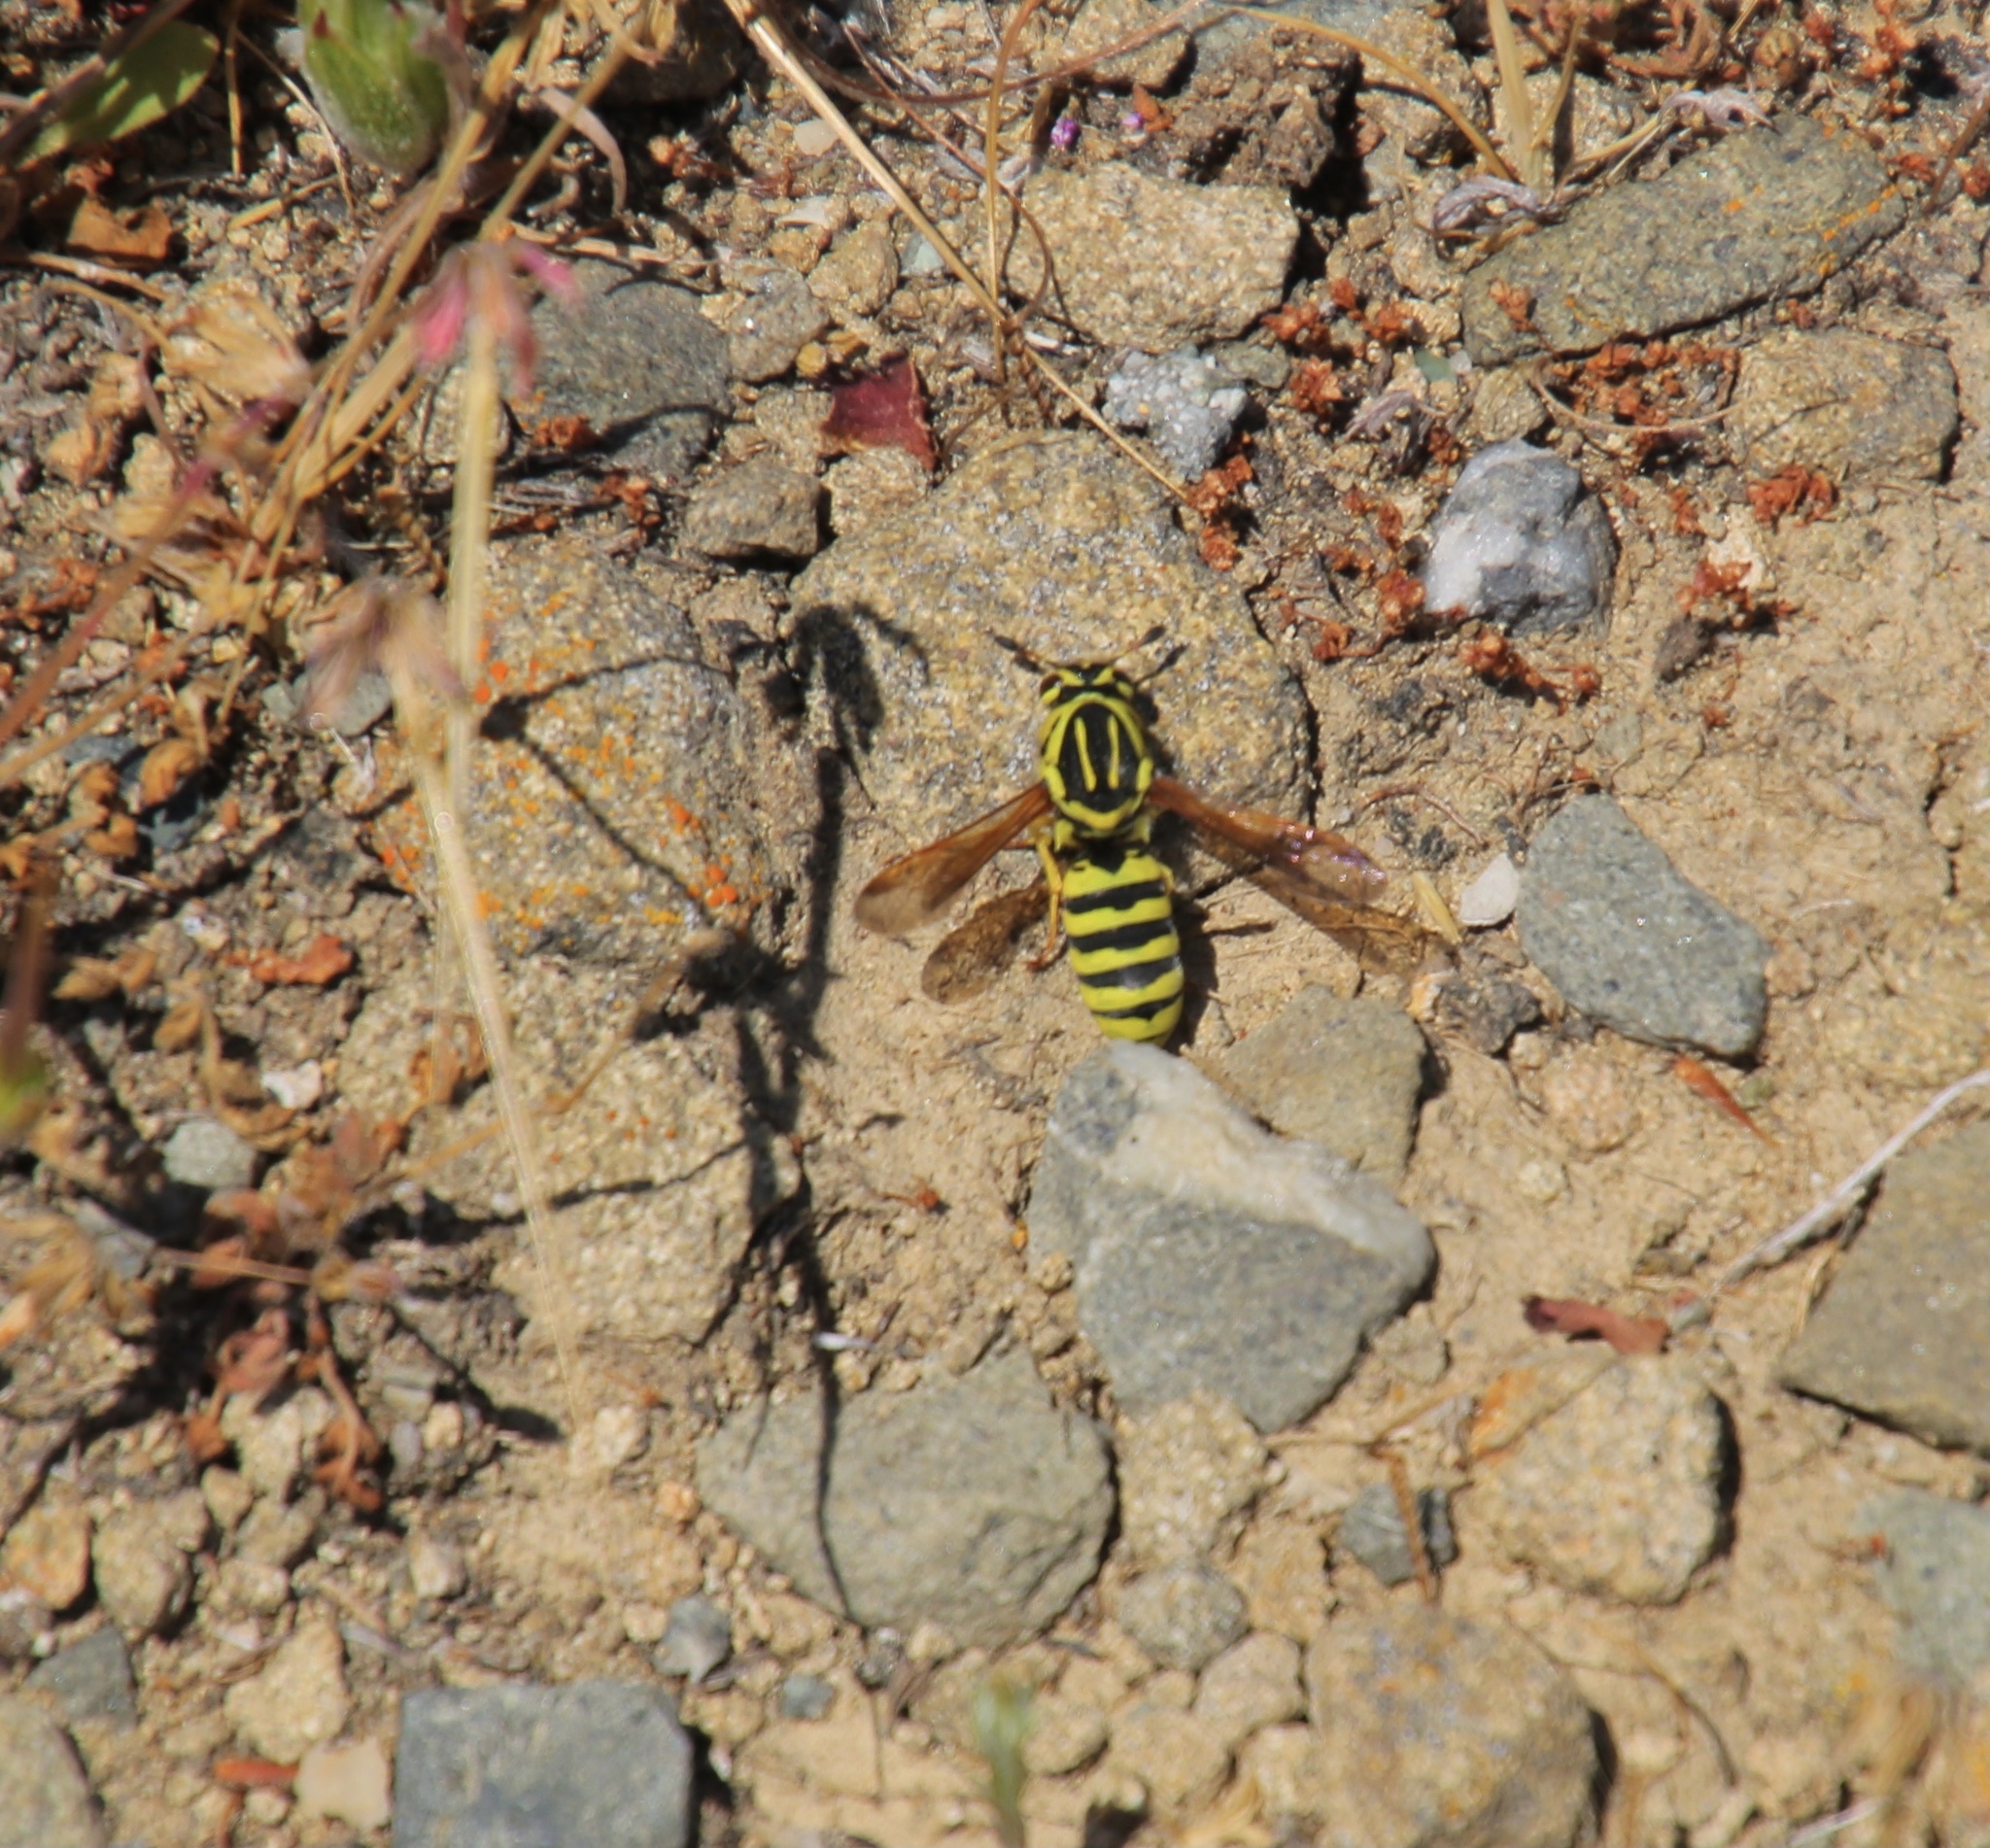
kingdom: Animalia
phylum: Arthropoda
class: Insecta
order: Hymenoptera
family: Masaridae
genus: Pseudomasaris
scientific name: Pseudomasaris coquilletti
